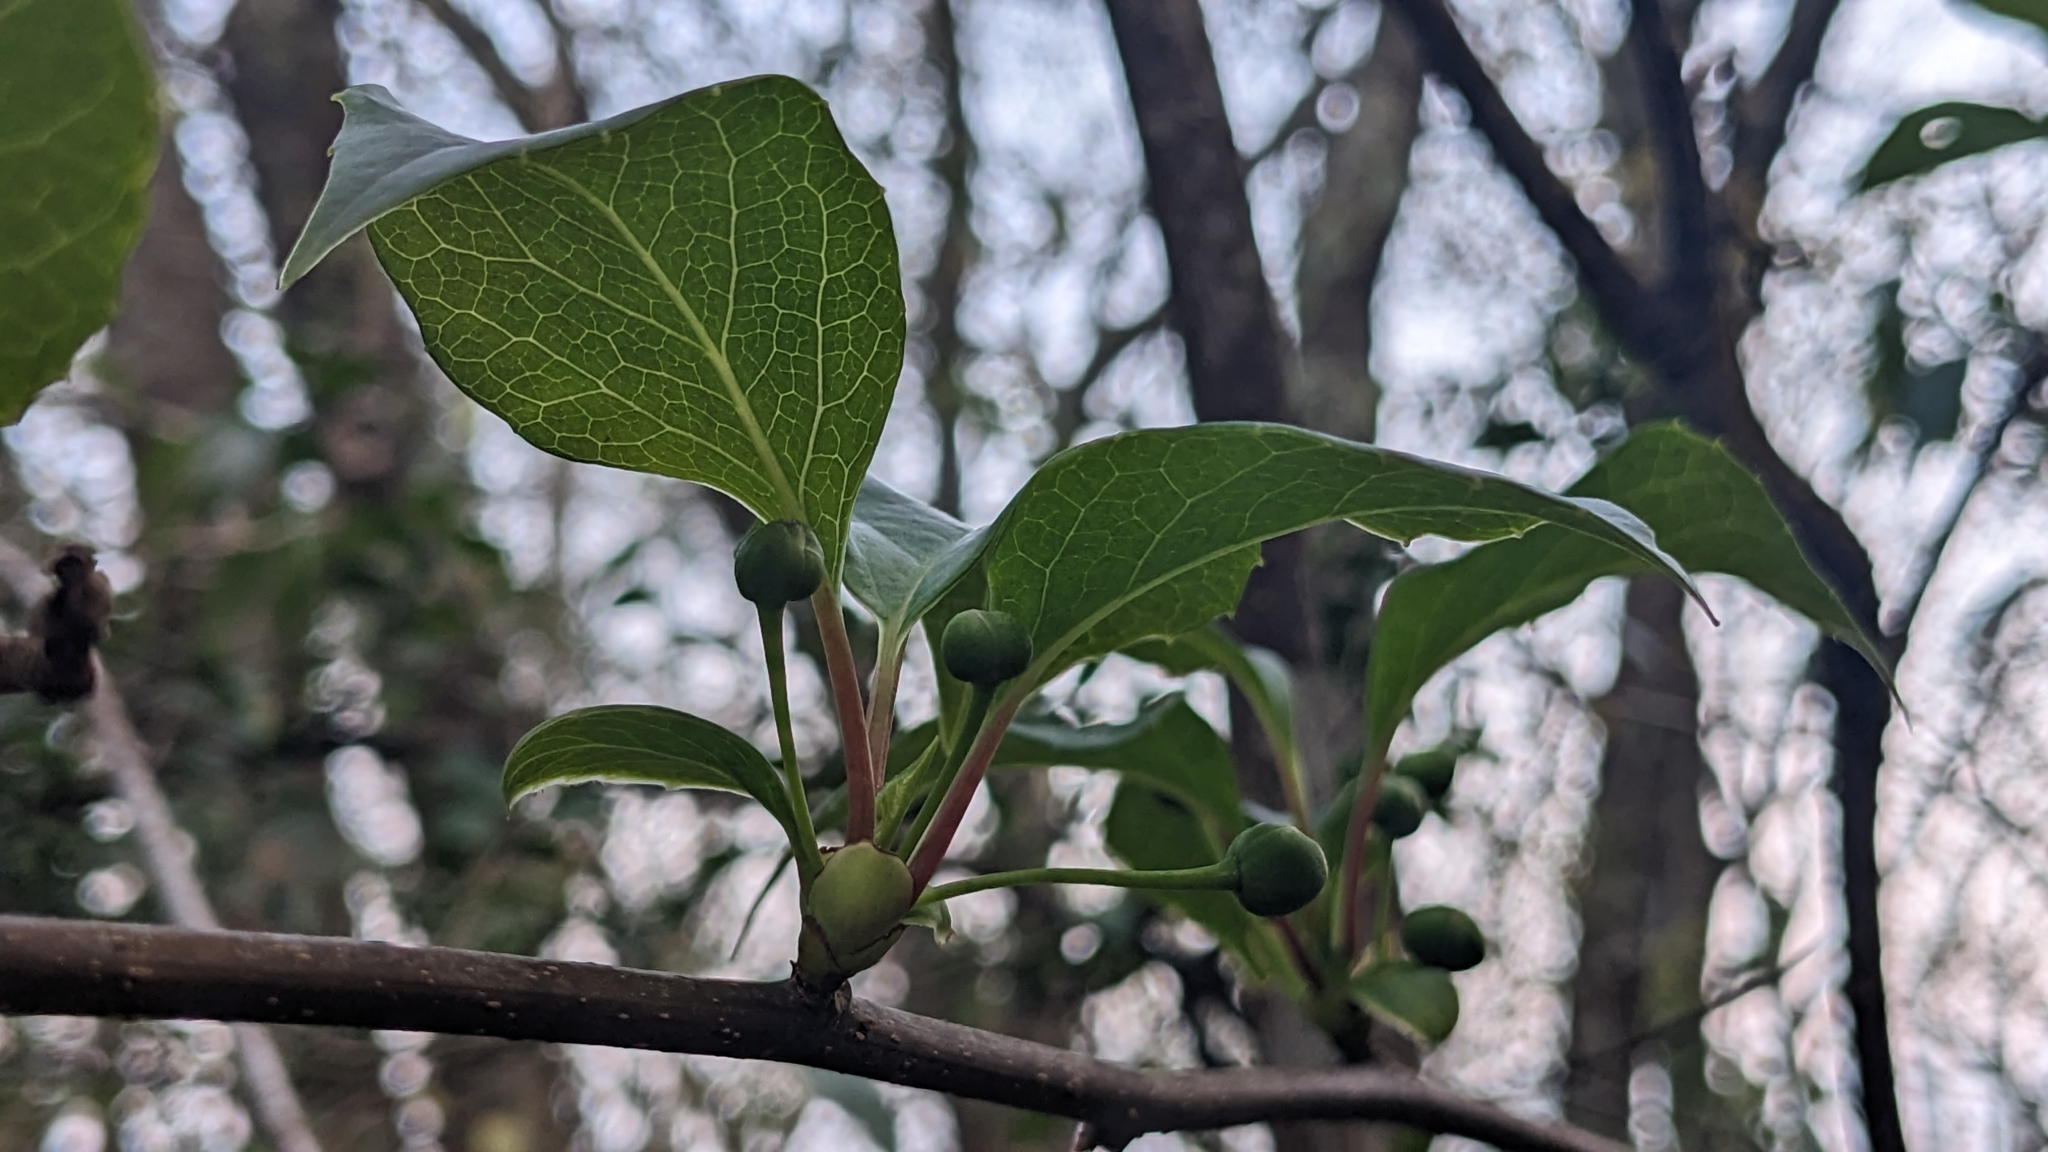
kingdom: Plantae
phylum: Tracheophyta
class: Magnoliopsida
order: Austrobaileyales
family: Schisandraceae
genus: Schisandra
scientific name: Schisandra arisanensis
